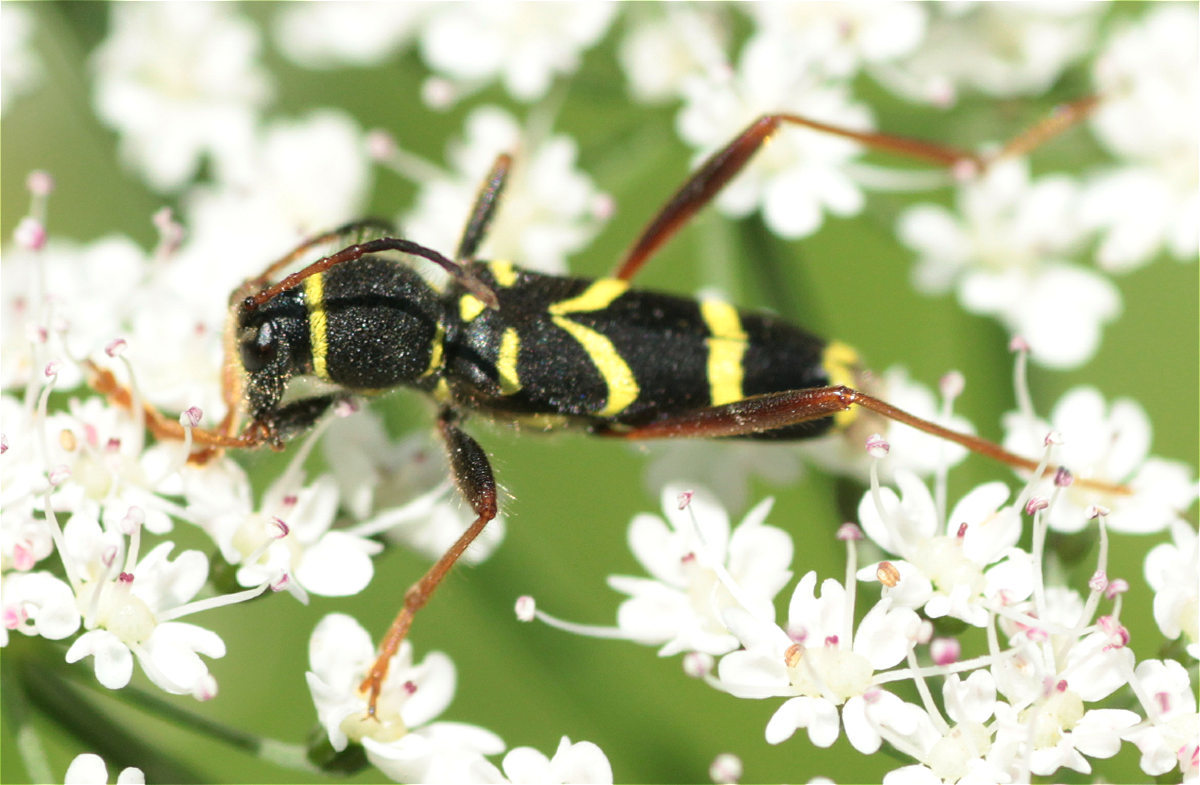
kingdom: Animalia
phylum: Arthropoda
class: Insecta
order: Coleoptera
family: Cerambycidae
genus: Clytus
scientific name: Clytus arietis
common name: Wasp beetle
